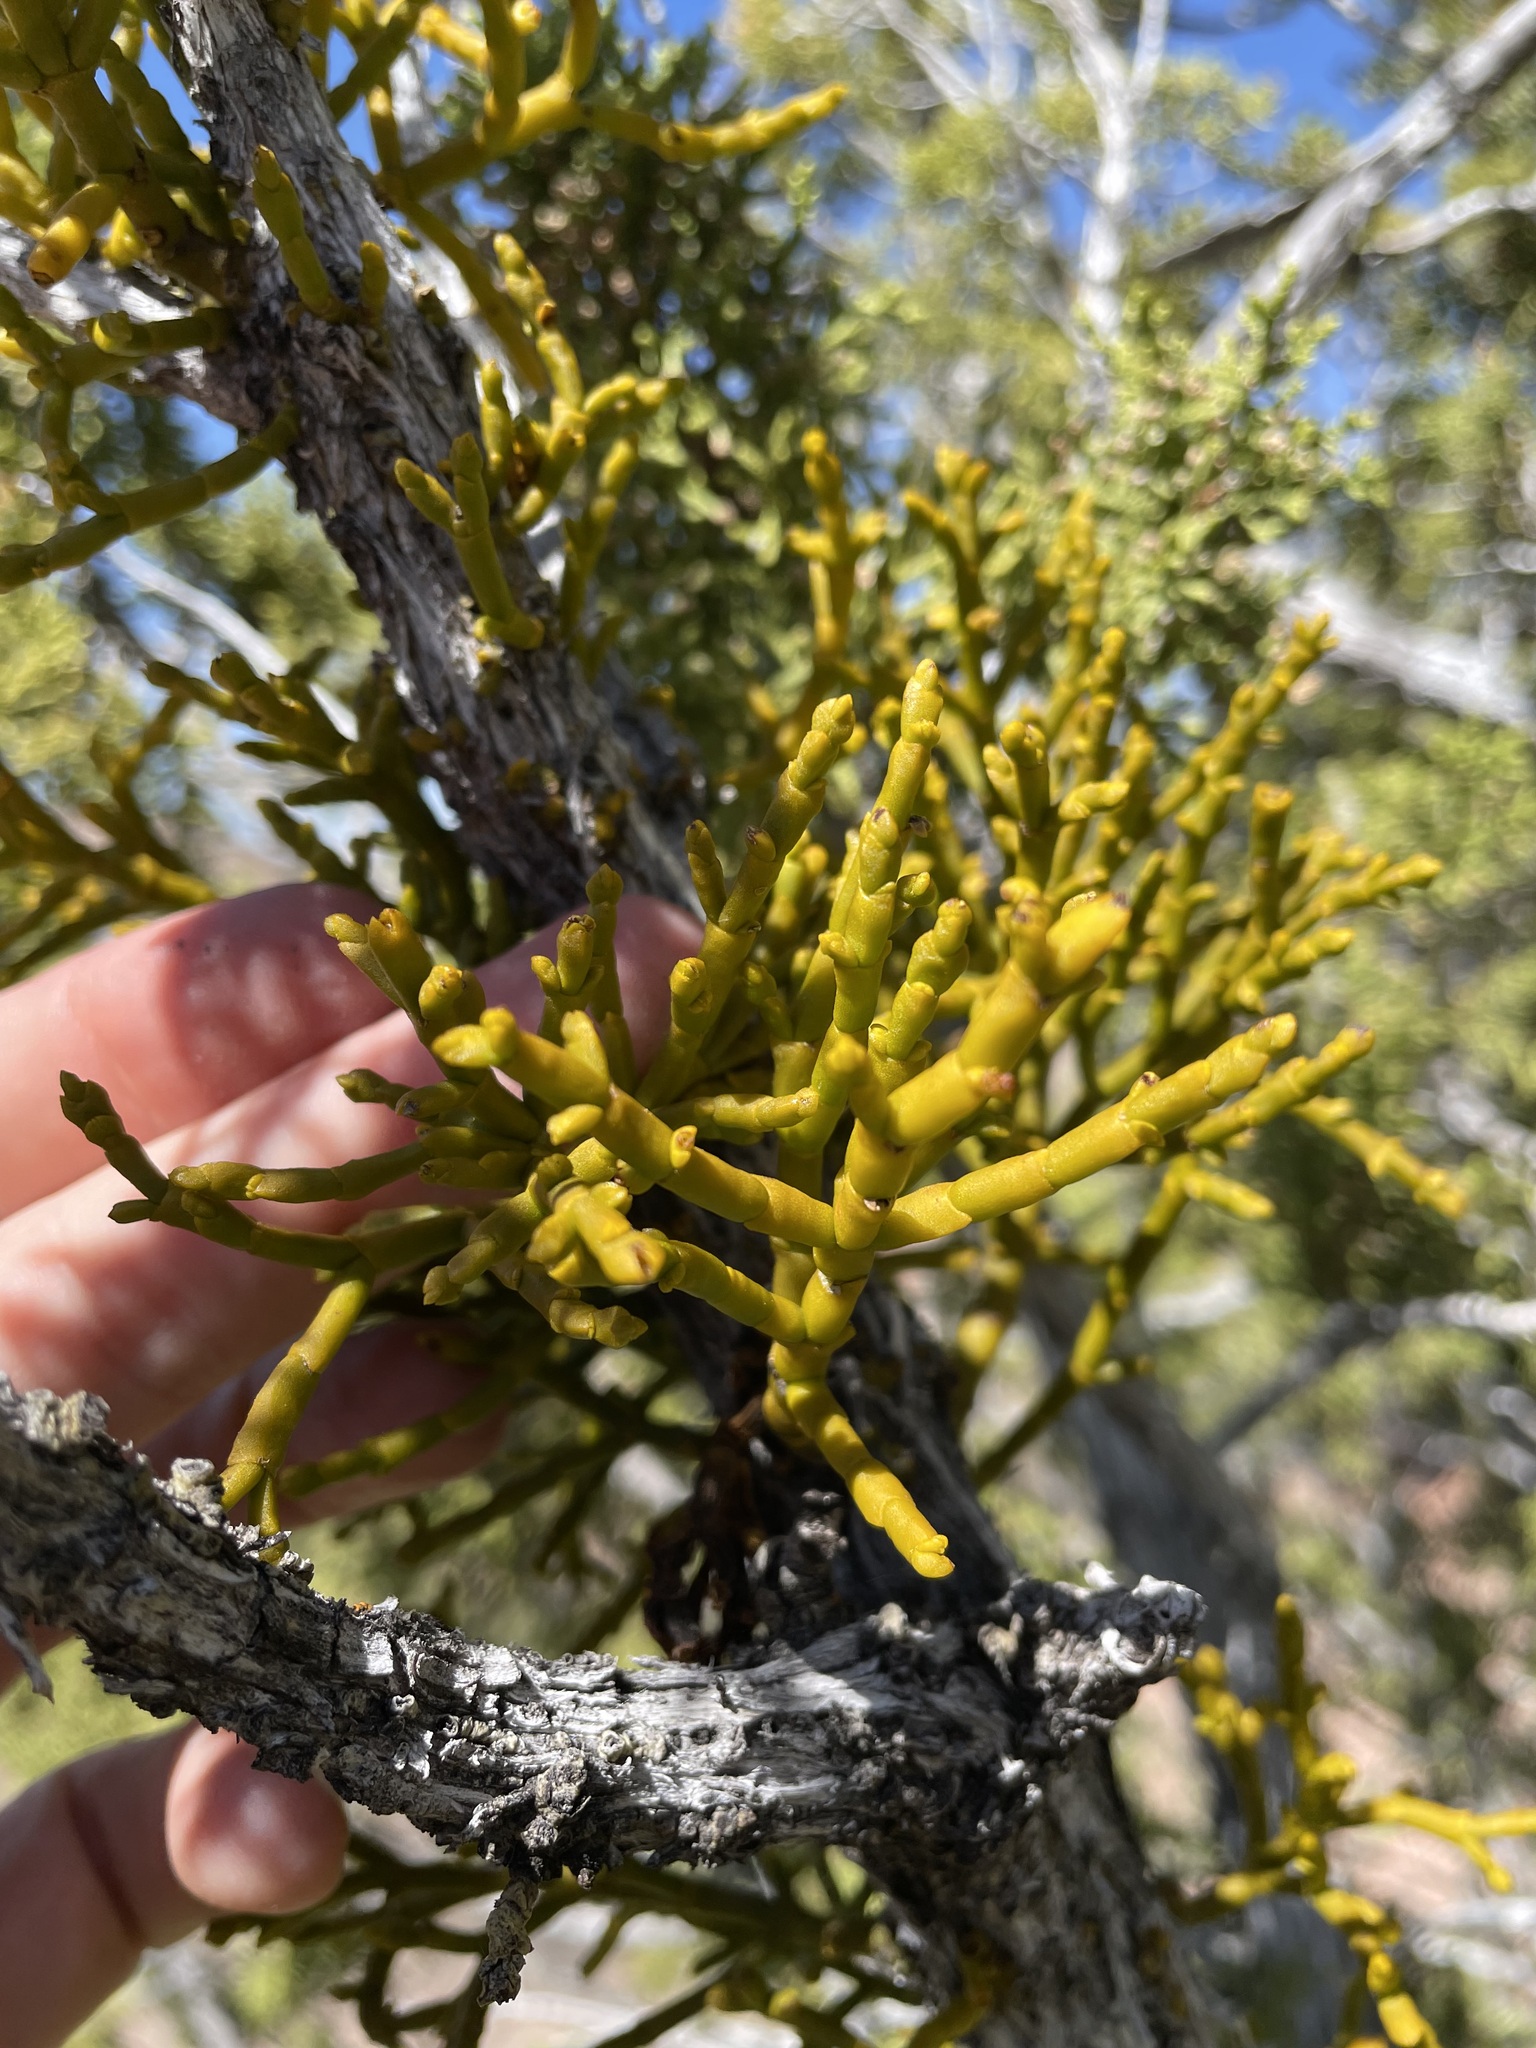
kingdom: Plantae
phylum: Tracheophyta
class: Magnoliopsida
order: Santalales
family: Viscaceae
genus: Phoradendron
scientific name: Phoradendron juniperinum
